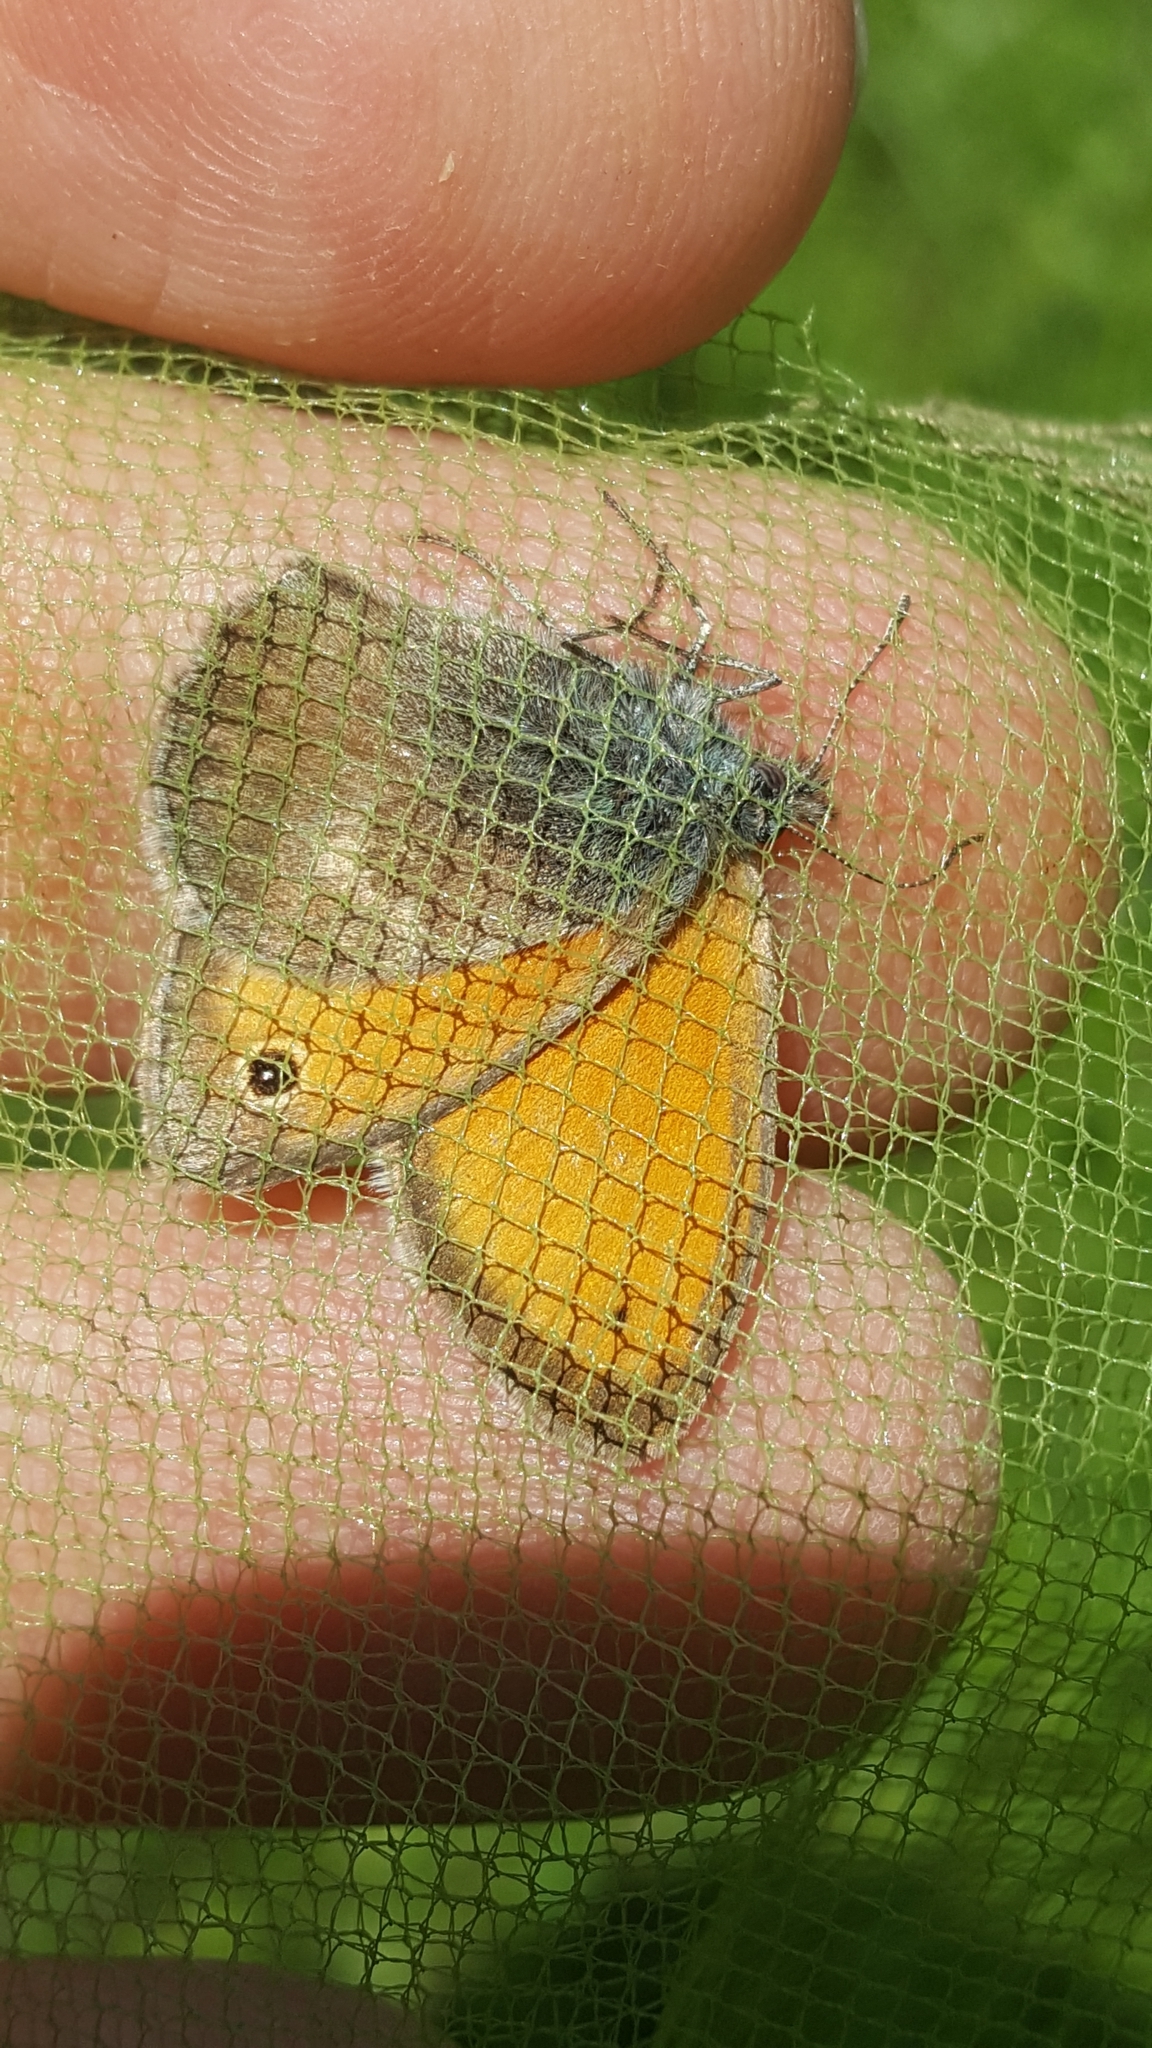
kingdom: Animalia
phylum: Arthropoda
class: Insecta
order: Lepidoptera
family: Nymphalidae
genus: Coenonympha
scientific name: Coenonympha pamphilus
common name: Small heath
